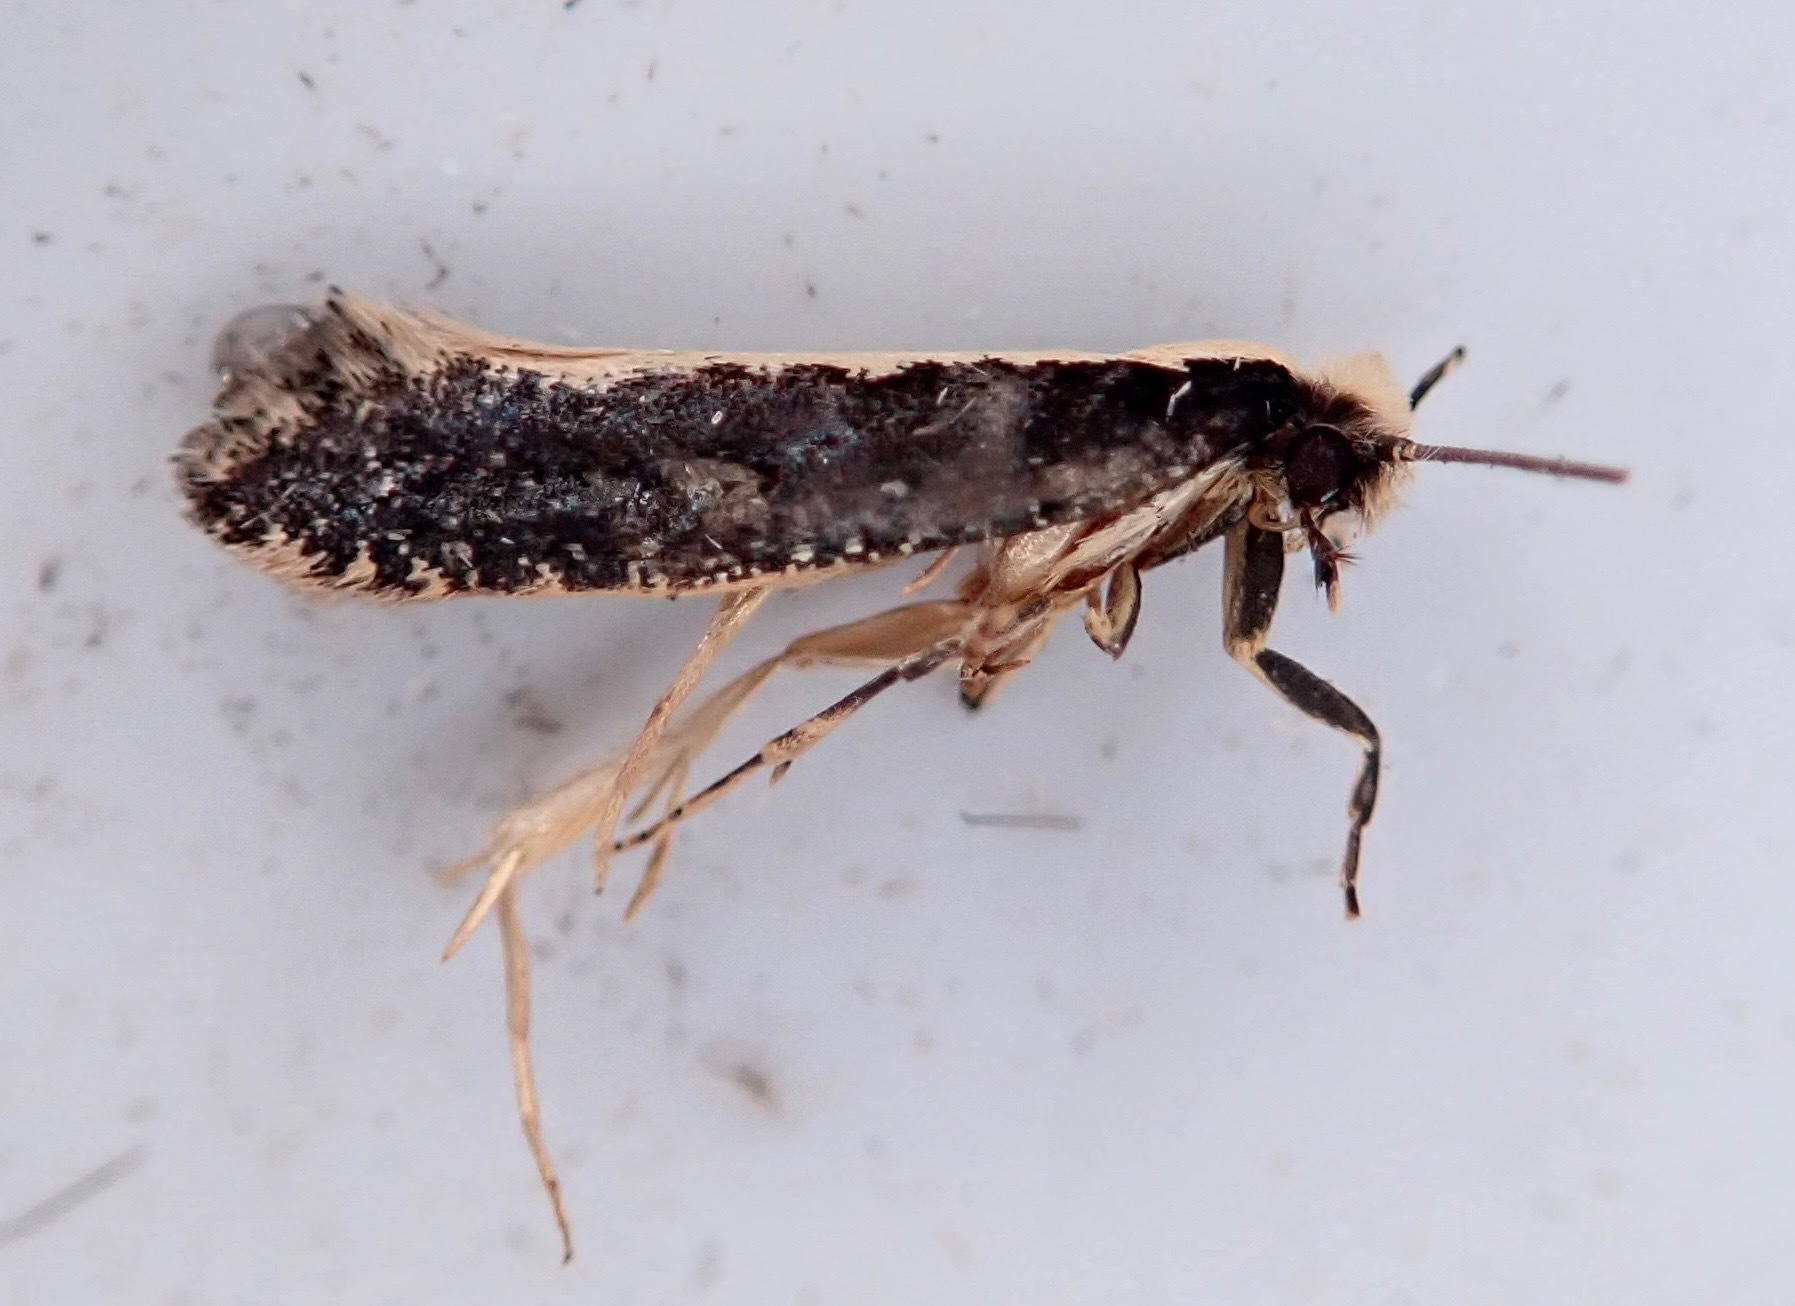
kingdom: Animalia
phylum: Arthropoda
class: Insecta
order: Lepidoptera
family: Tineidae
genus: Monopis
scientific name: Monopis ethelella
